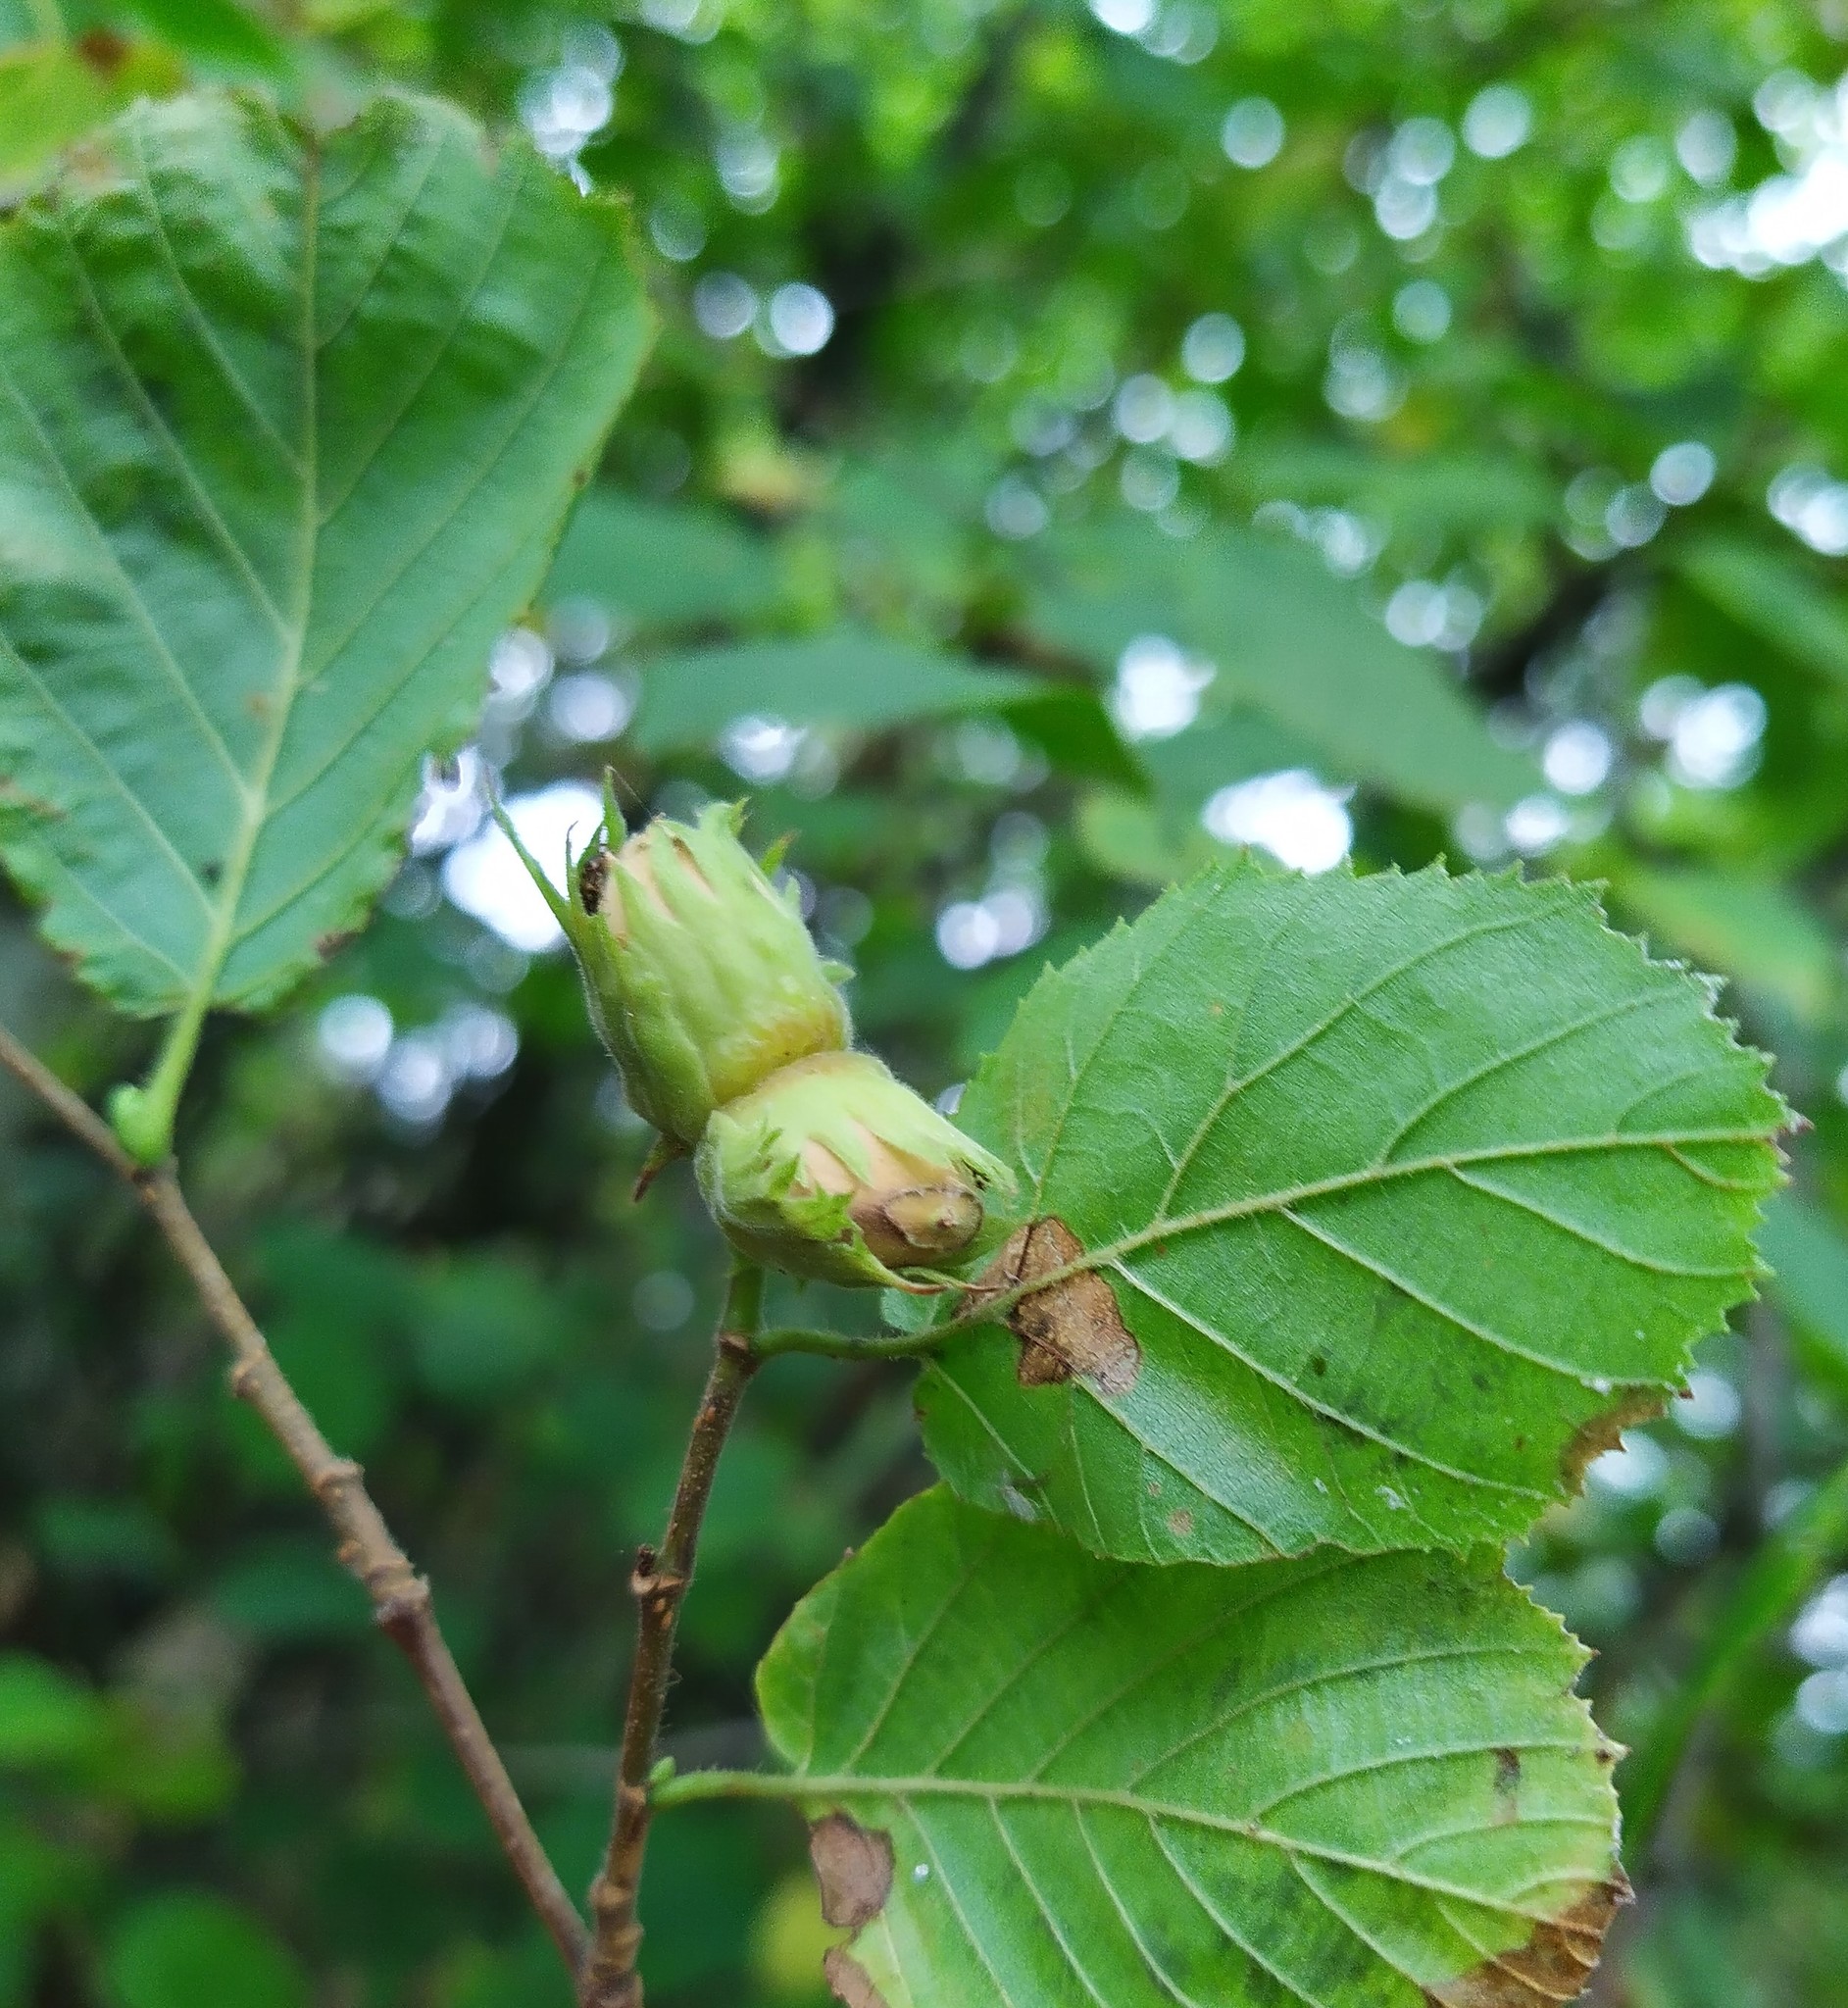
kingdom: Plantae
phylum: Tracheophyta
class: Magnoliopsida
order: Fagales
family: Betulaceae
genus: Corylus
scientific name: Corylus avellana
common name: European hazel
